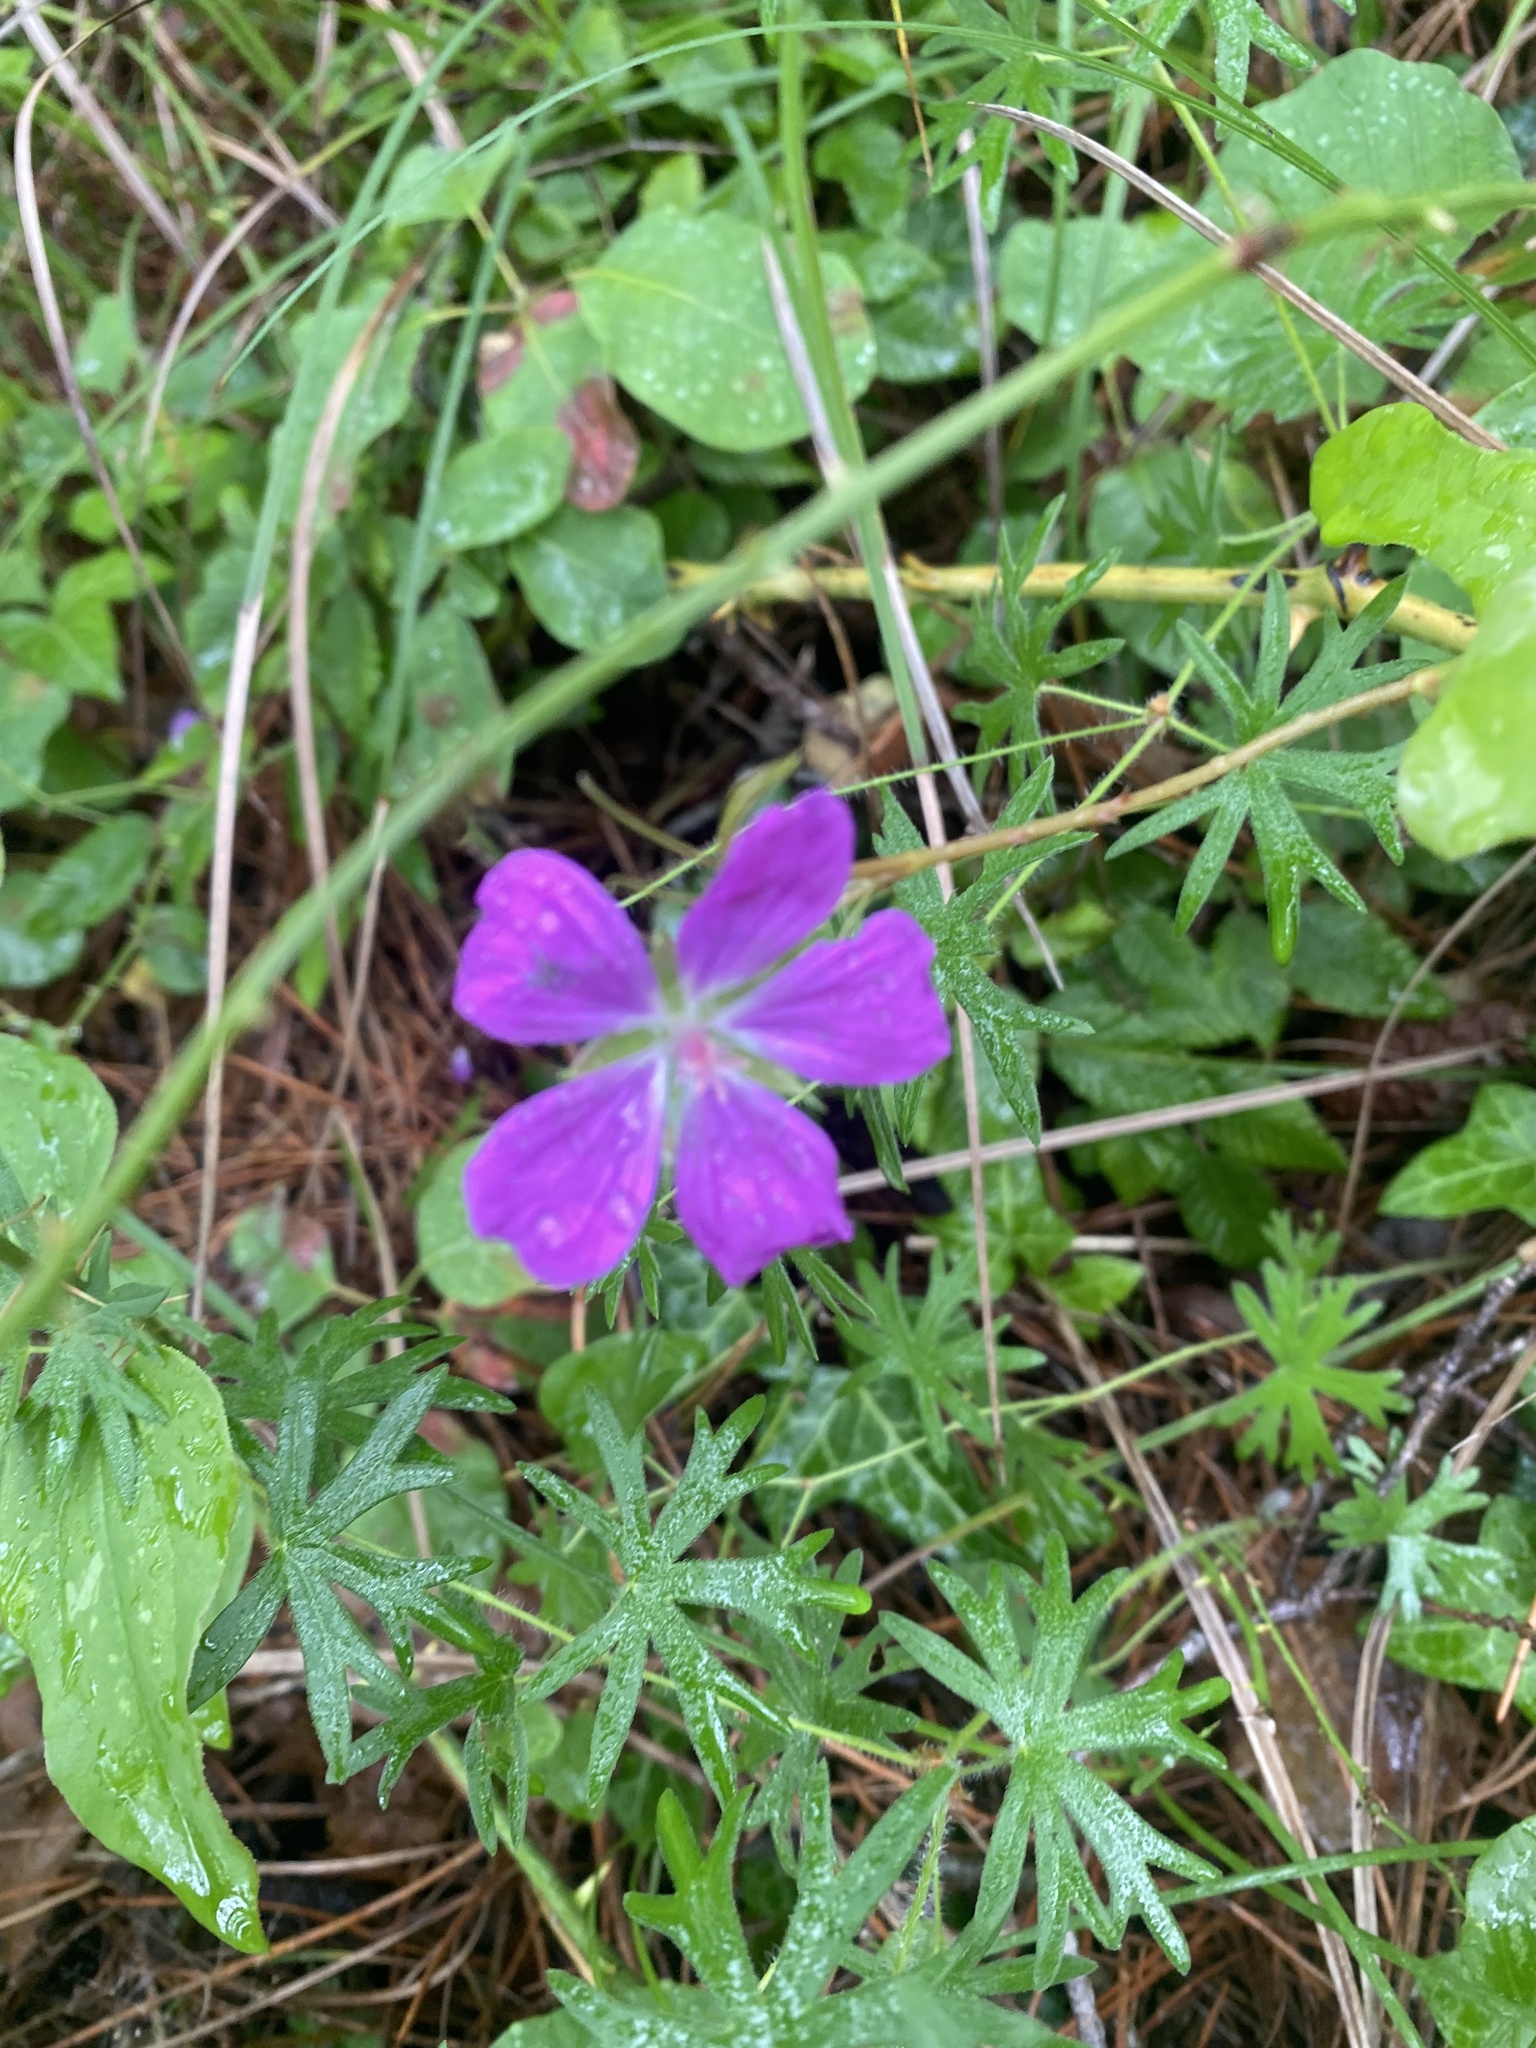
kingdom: Plantae
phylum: Tracheophyta
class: Magnoliopsida
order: Geraniales
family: Geraniaceae
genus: Geranium
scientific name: Geranium sanguineum
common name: Bloody crane's-bill
